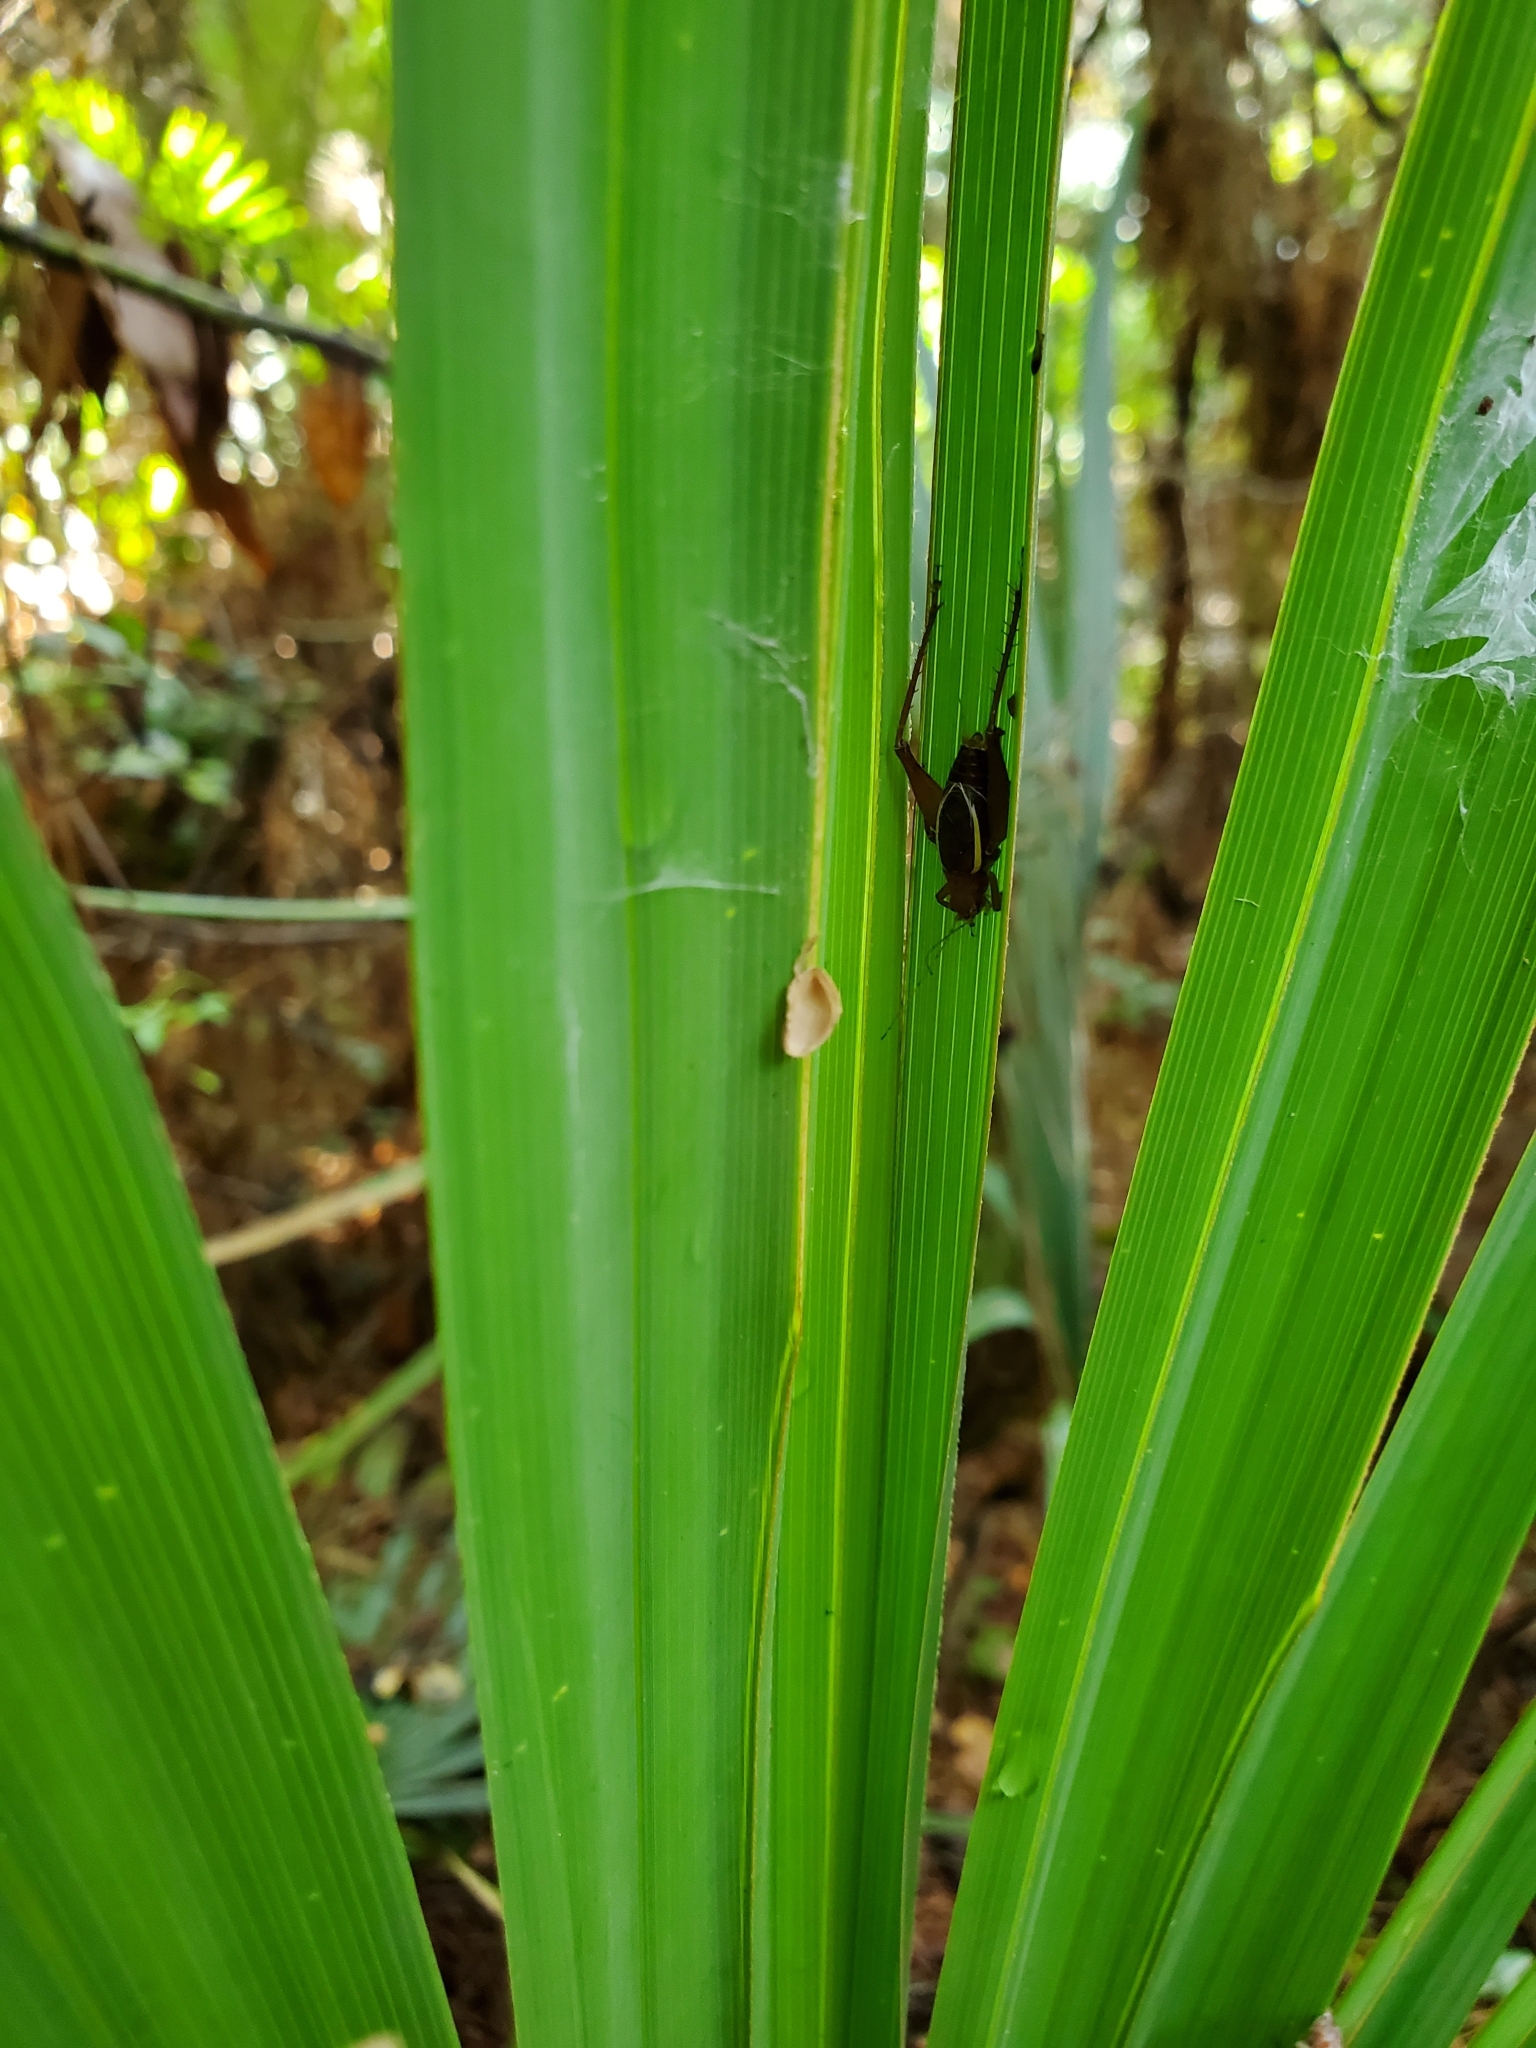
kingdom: Animalia
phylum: Arthropoda
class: Insecta
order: Orthoptera
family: Gryllidae
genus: Hapithus
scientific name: Hapithus agitator
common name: Restless bush cricket
